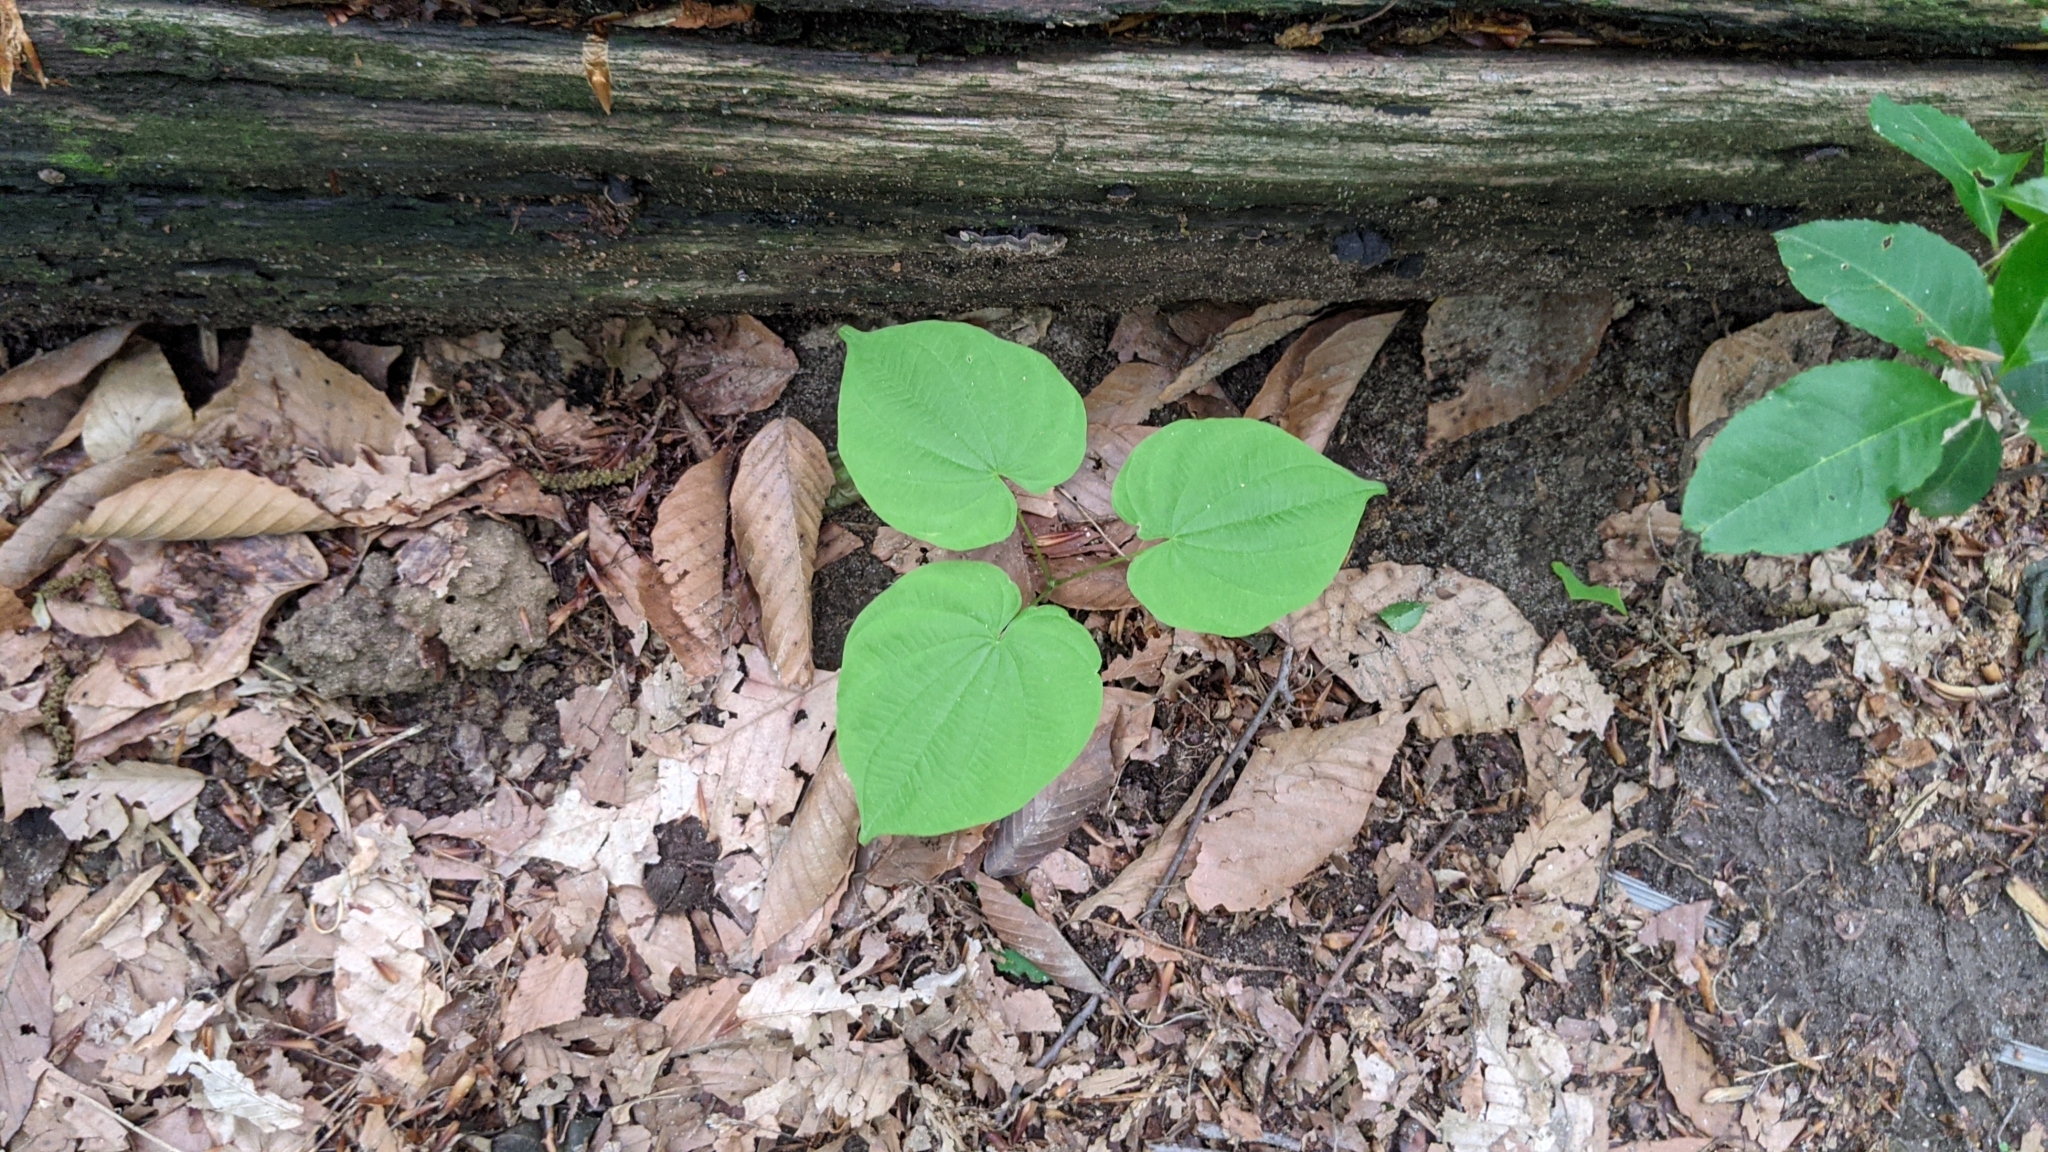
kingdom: Plantae
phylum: Tracheophyta
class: Liliopsida
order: Dioscoreales
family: Dioscoreaceae
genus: Dioscorea
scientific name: Dioscorea villosa
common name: Wild yam
